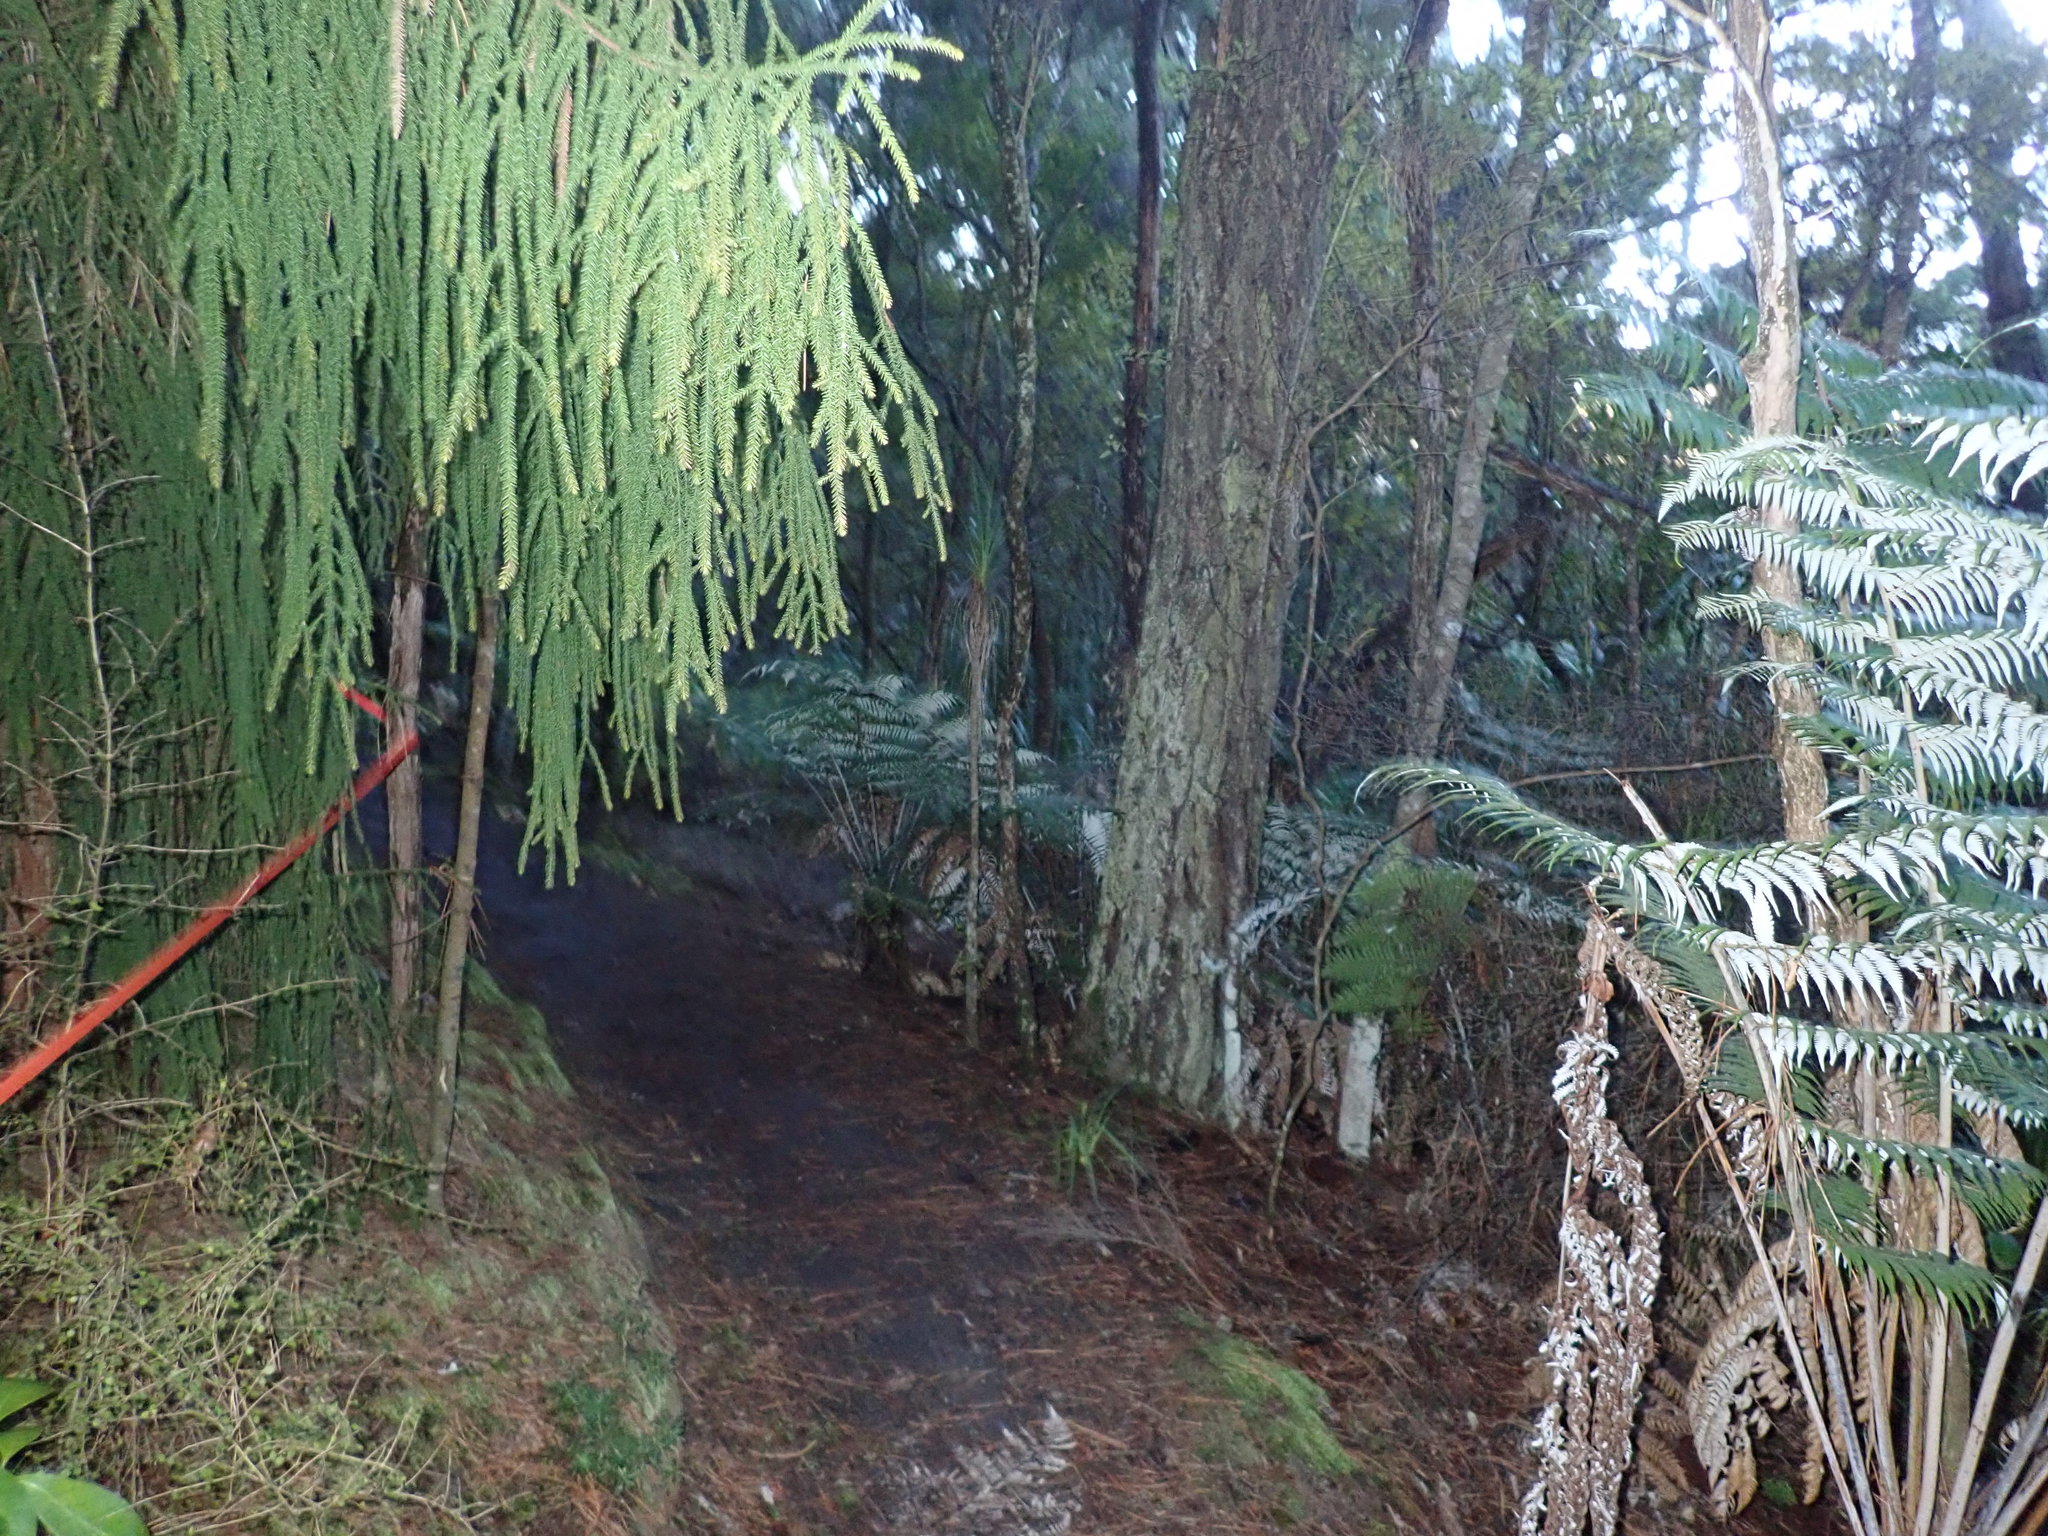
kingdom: Plantae
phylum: Tracheophyta
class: Pinopsida
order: Pinales
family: Podocarpaceae
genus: Dacrydium
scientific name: Dacrydium cupressinum
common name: Red pine
